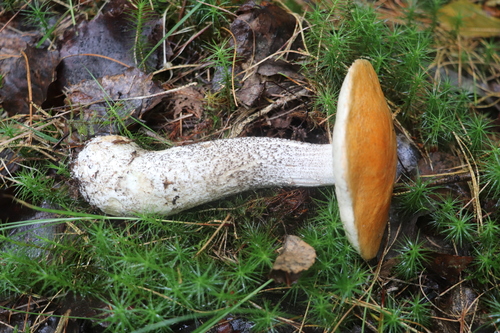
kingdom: Fungi
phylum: Basidiomycota
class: Agaricomycetes
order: Boletales
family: Boletaceae
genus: Leccinum
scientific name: Leccinum piceinum
